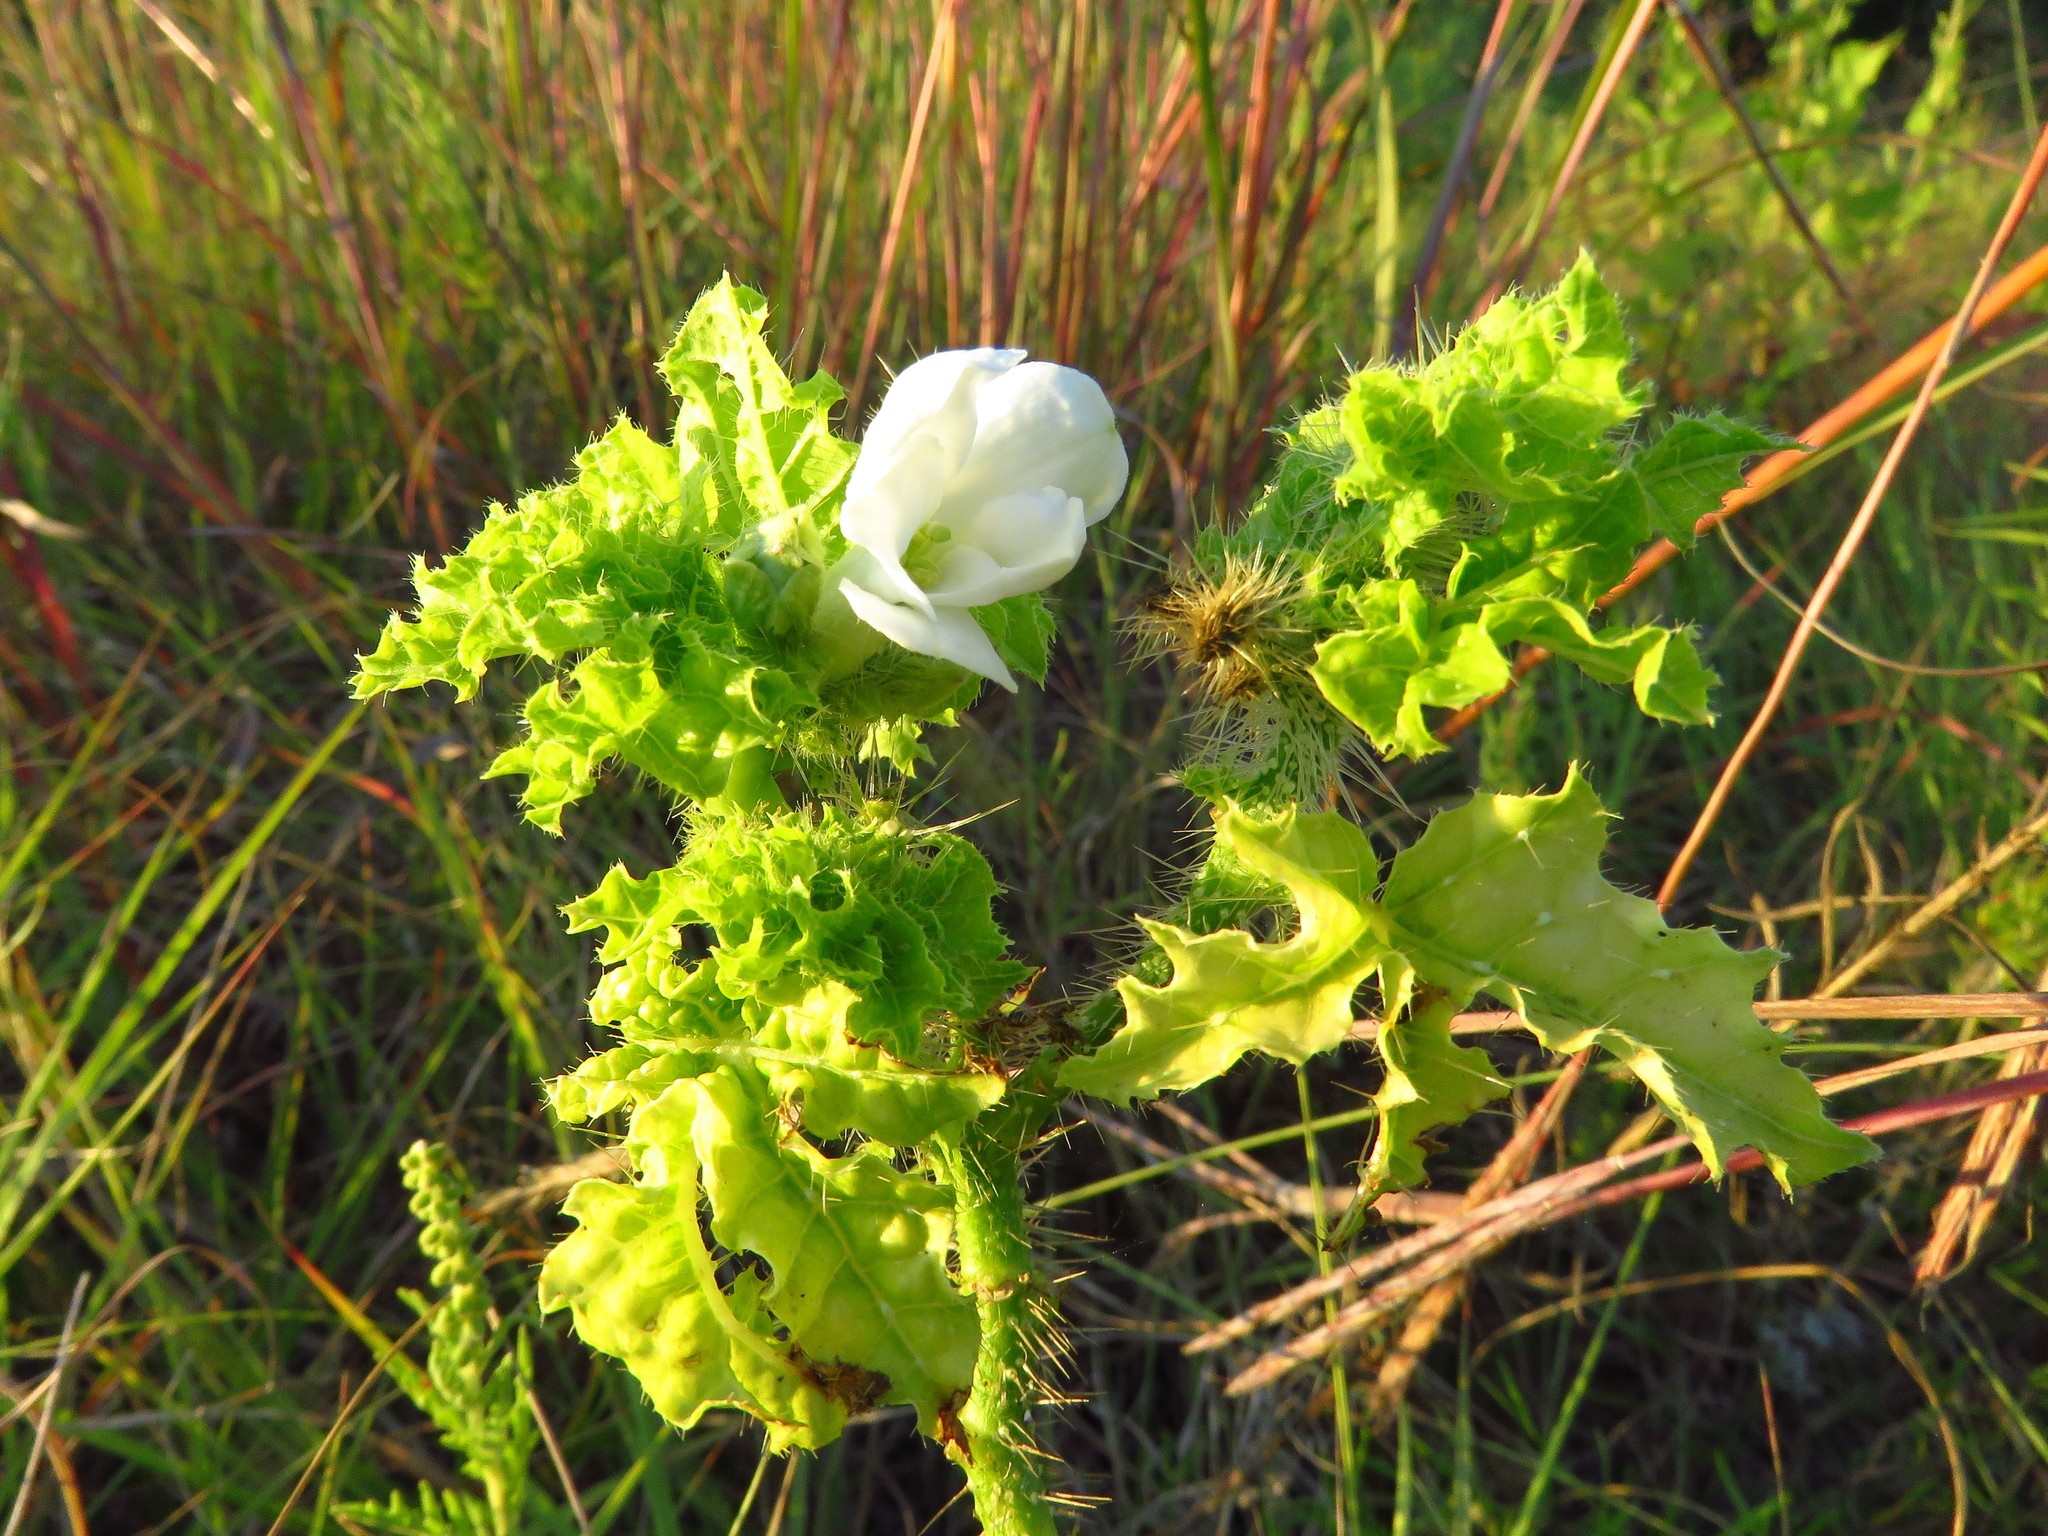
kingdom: Plantae
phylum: Tracheophyta
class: Magnoliopsida
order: Malpighiales
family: Euphorbiaceae
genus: Cnidoscolus
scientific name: Cnidoscolus texanus
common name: Texas bull-nettle
